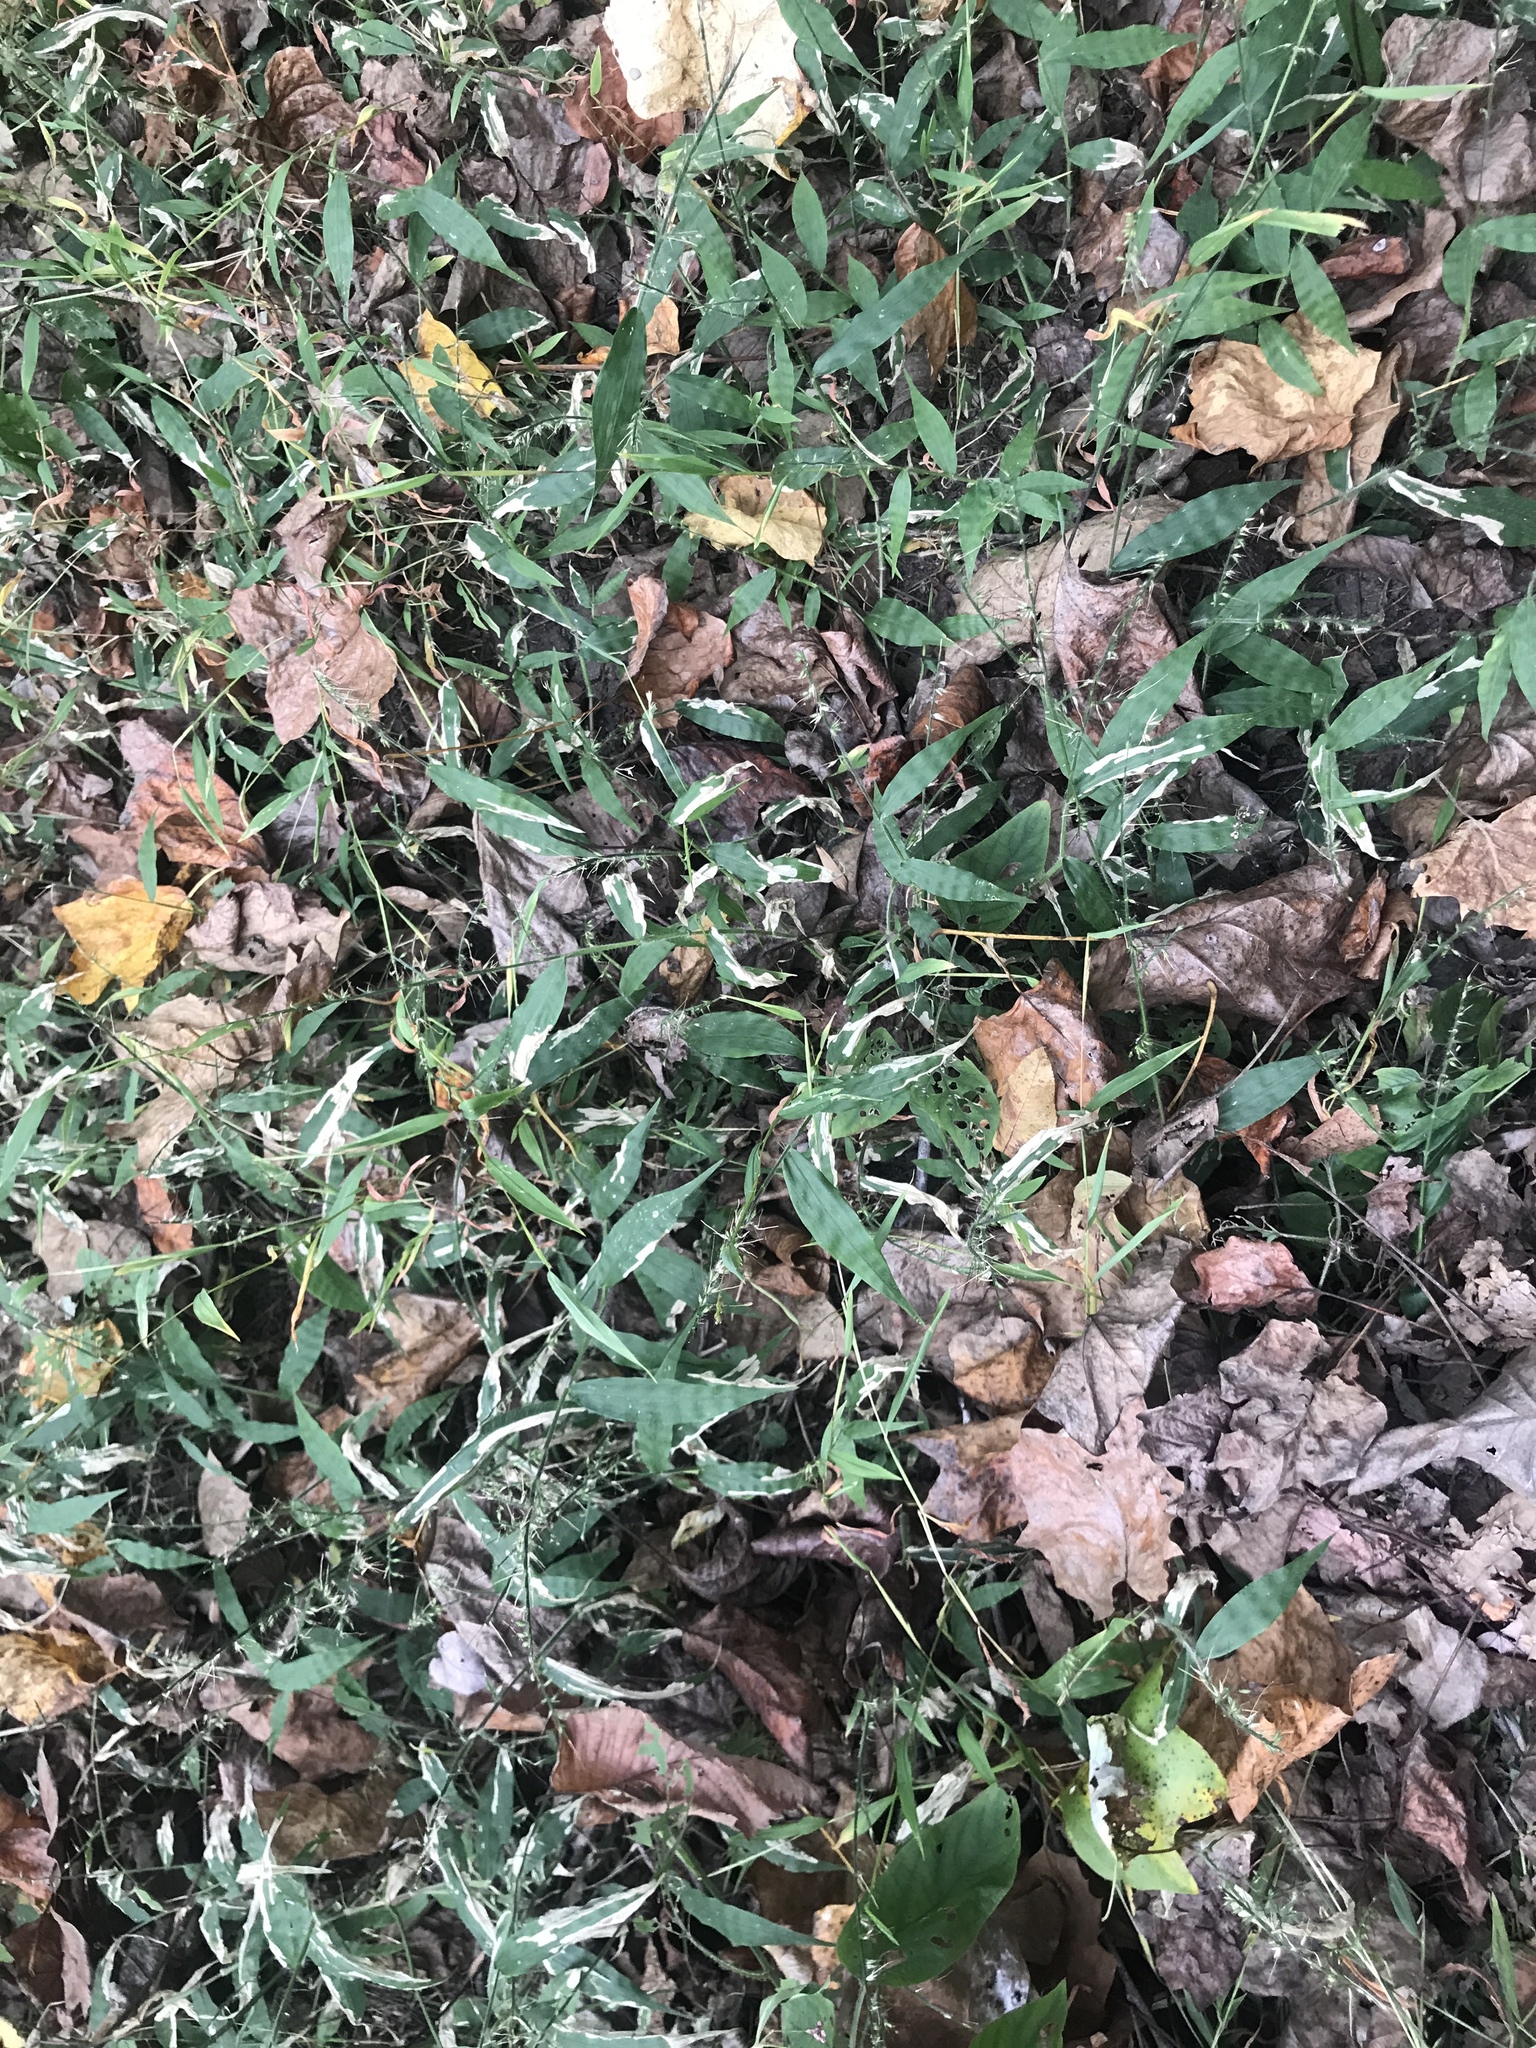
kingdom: Plantae
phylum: Tracheophyta
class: Liliopsida
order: Poales
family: Poaceae
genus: Oplismenus
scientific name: Oplismenus undulatifolius
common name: Wavyleaf basketgrass
